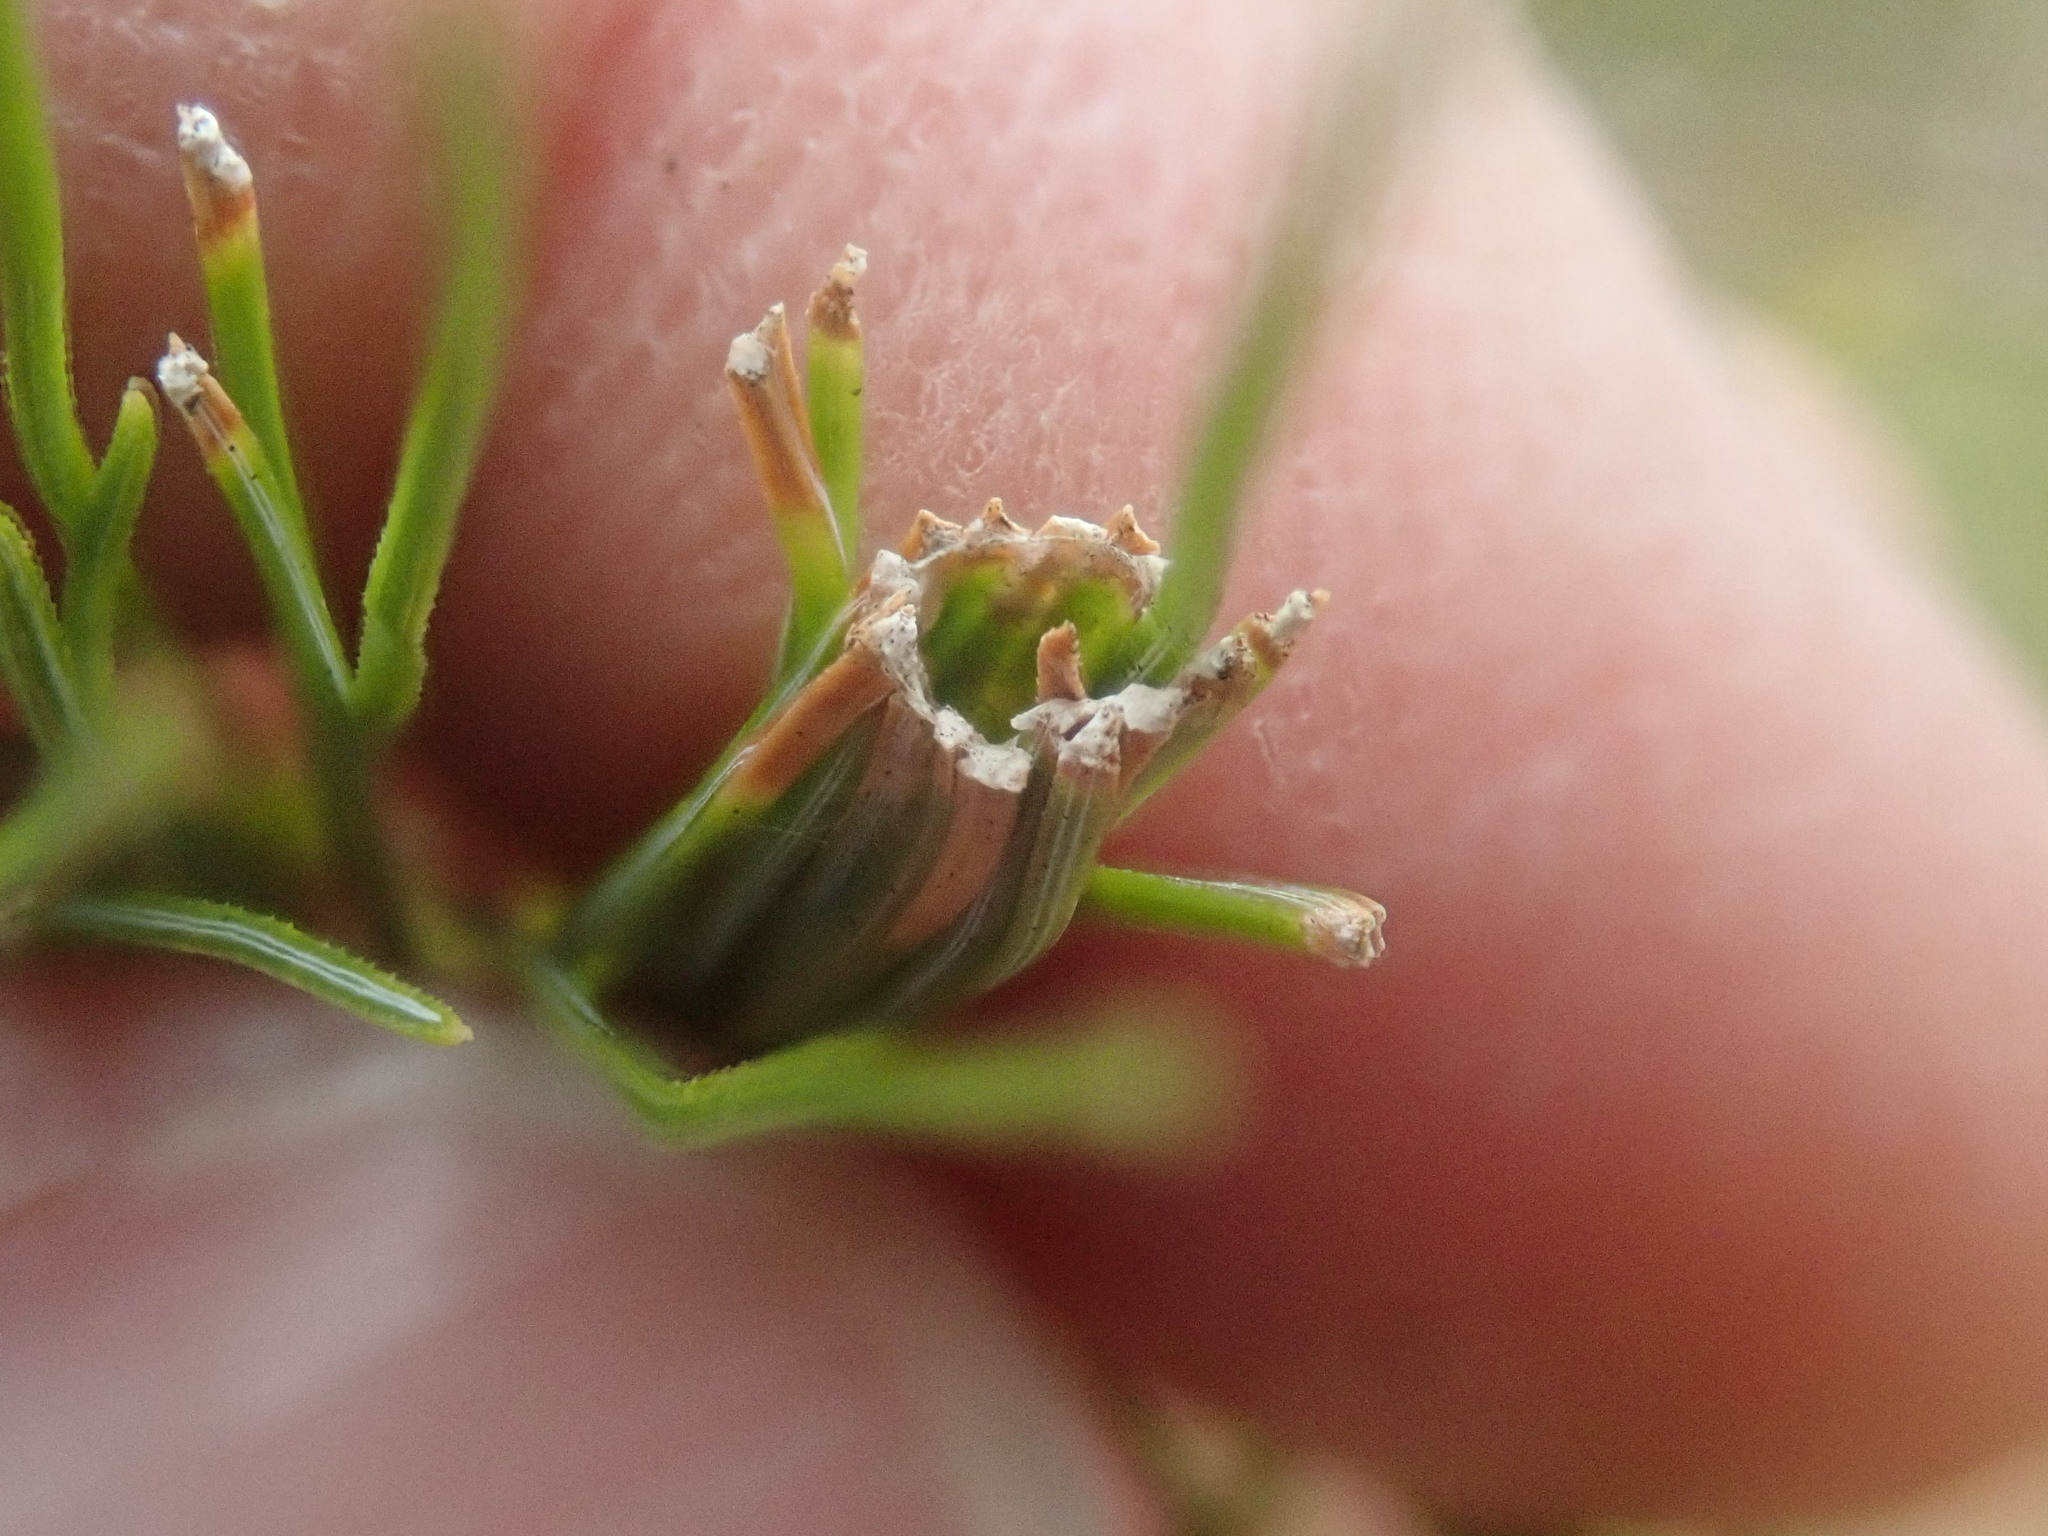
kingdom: Animalia
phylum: Arthropoda
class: Insecta
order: Lepidoptera
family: Tortricidae
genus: Argyrotaenia
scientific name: Argyrotaenia pinatubana
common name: Pine tube moth
